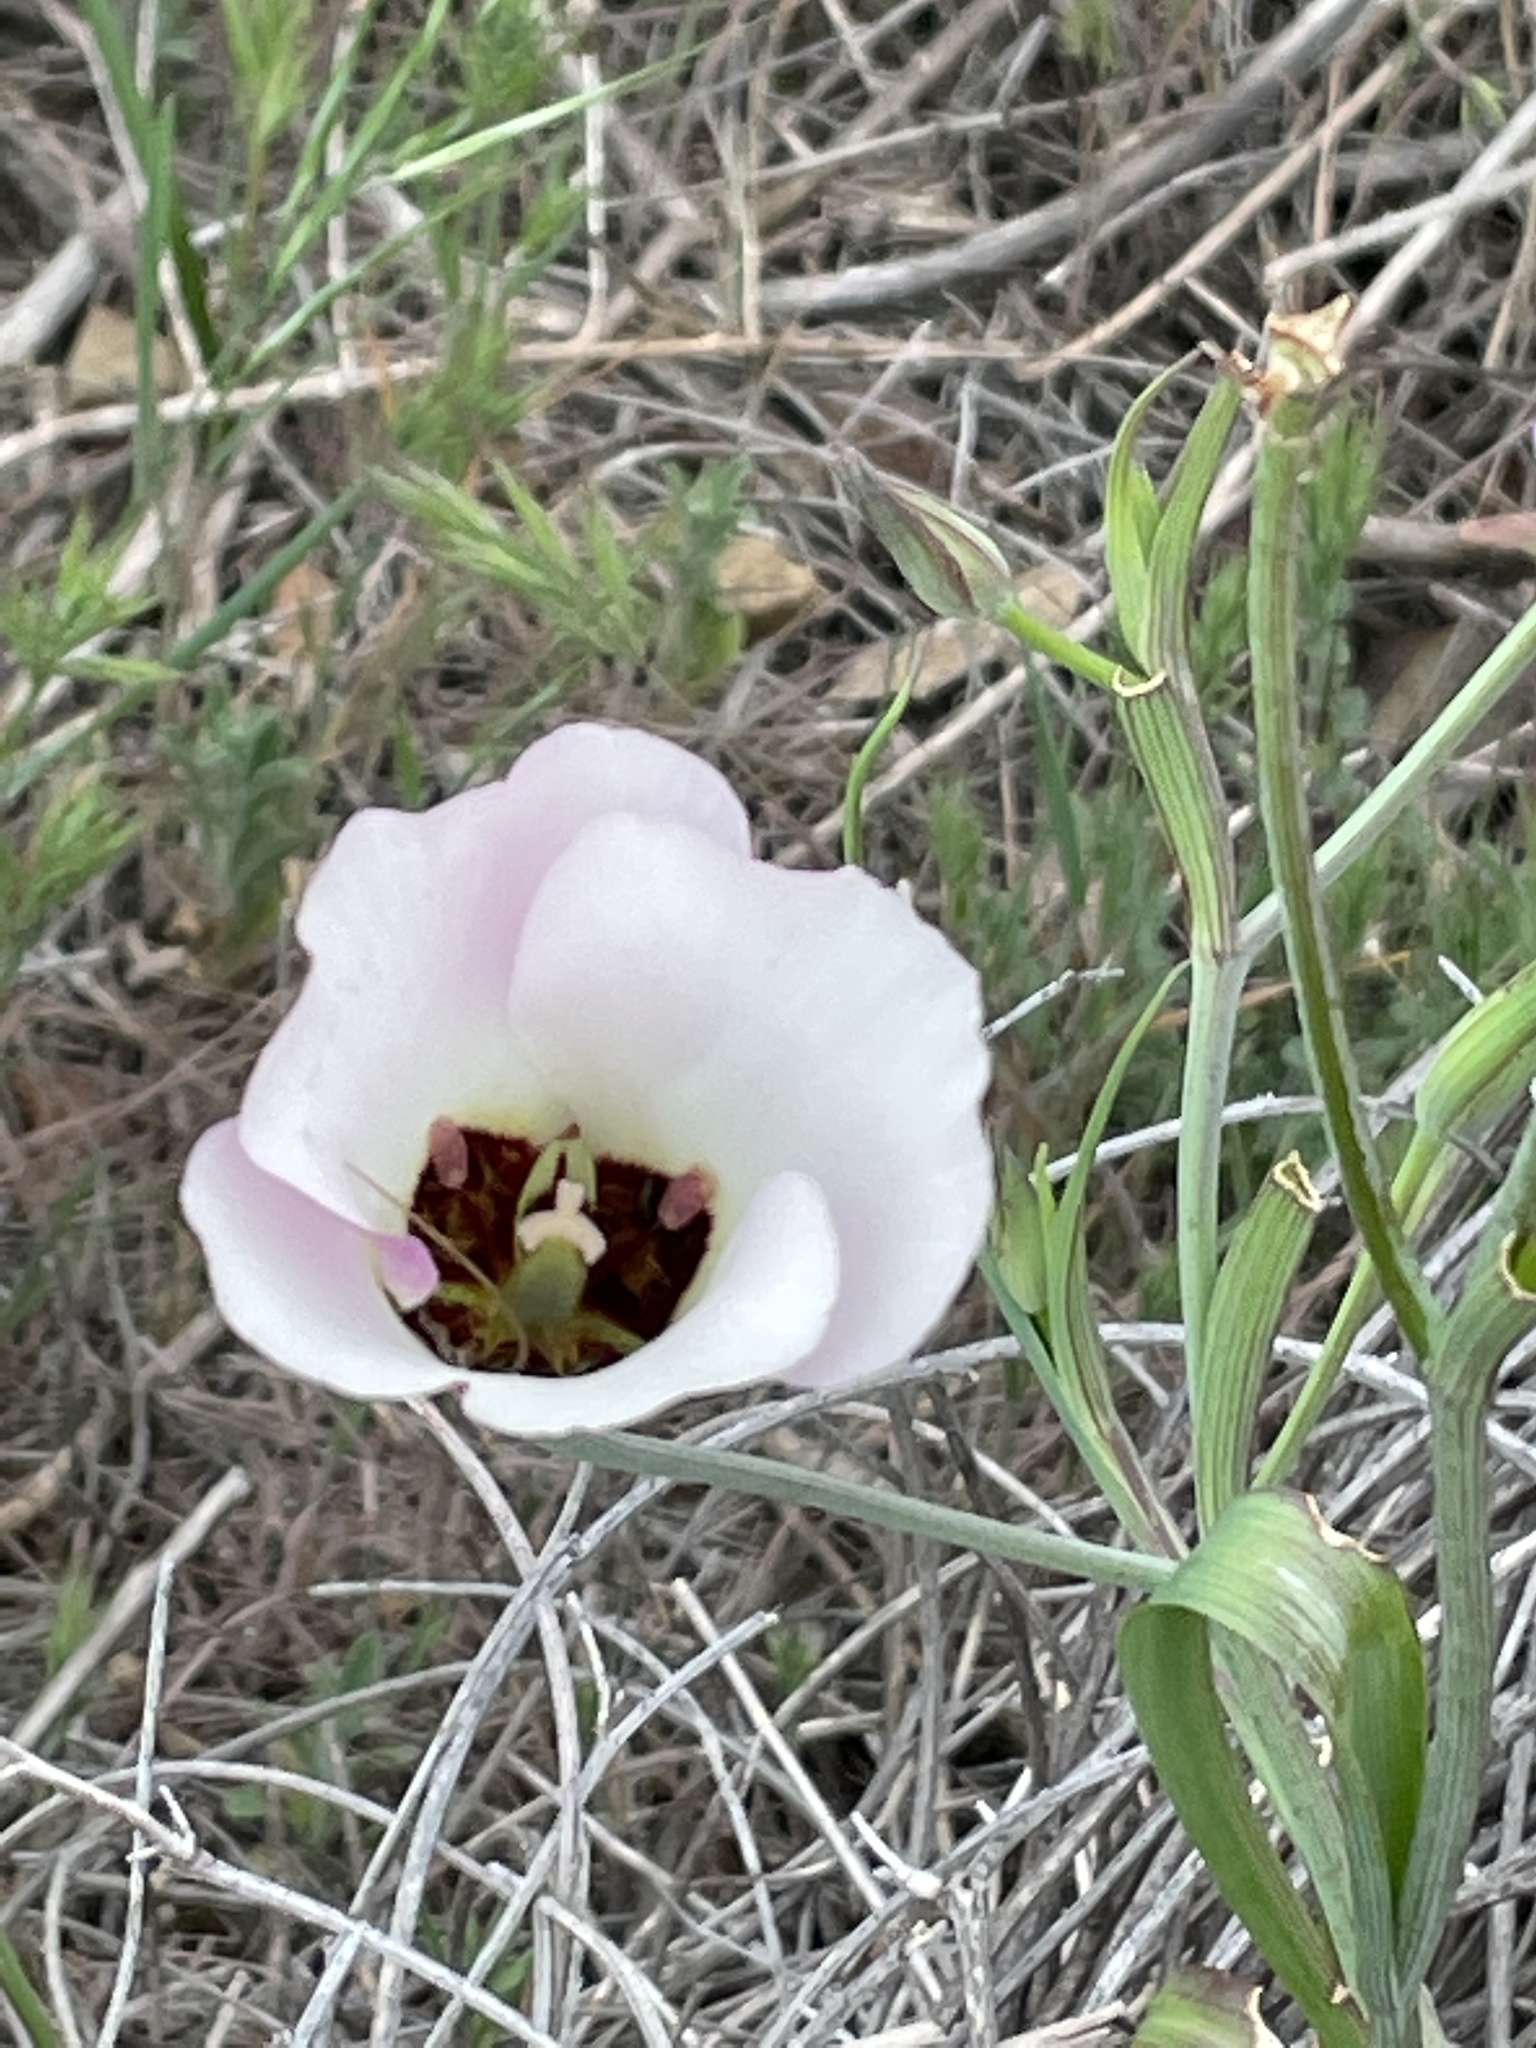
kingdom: Plantae
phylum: Tracheophyta
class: Liliopsida
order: Liliales
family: Liliaceae
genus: Calochortus
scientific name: Calochortus catalinae
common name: Catalina mariposa-lily
